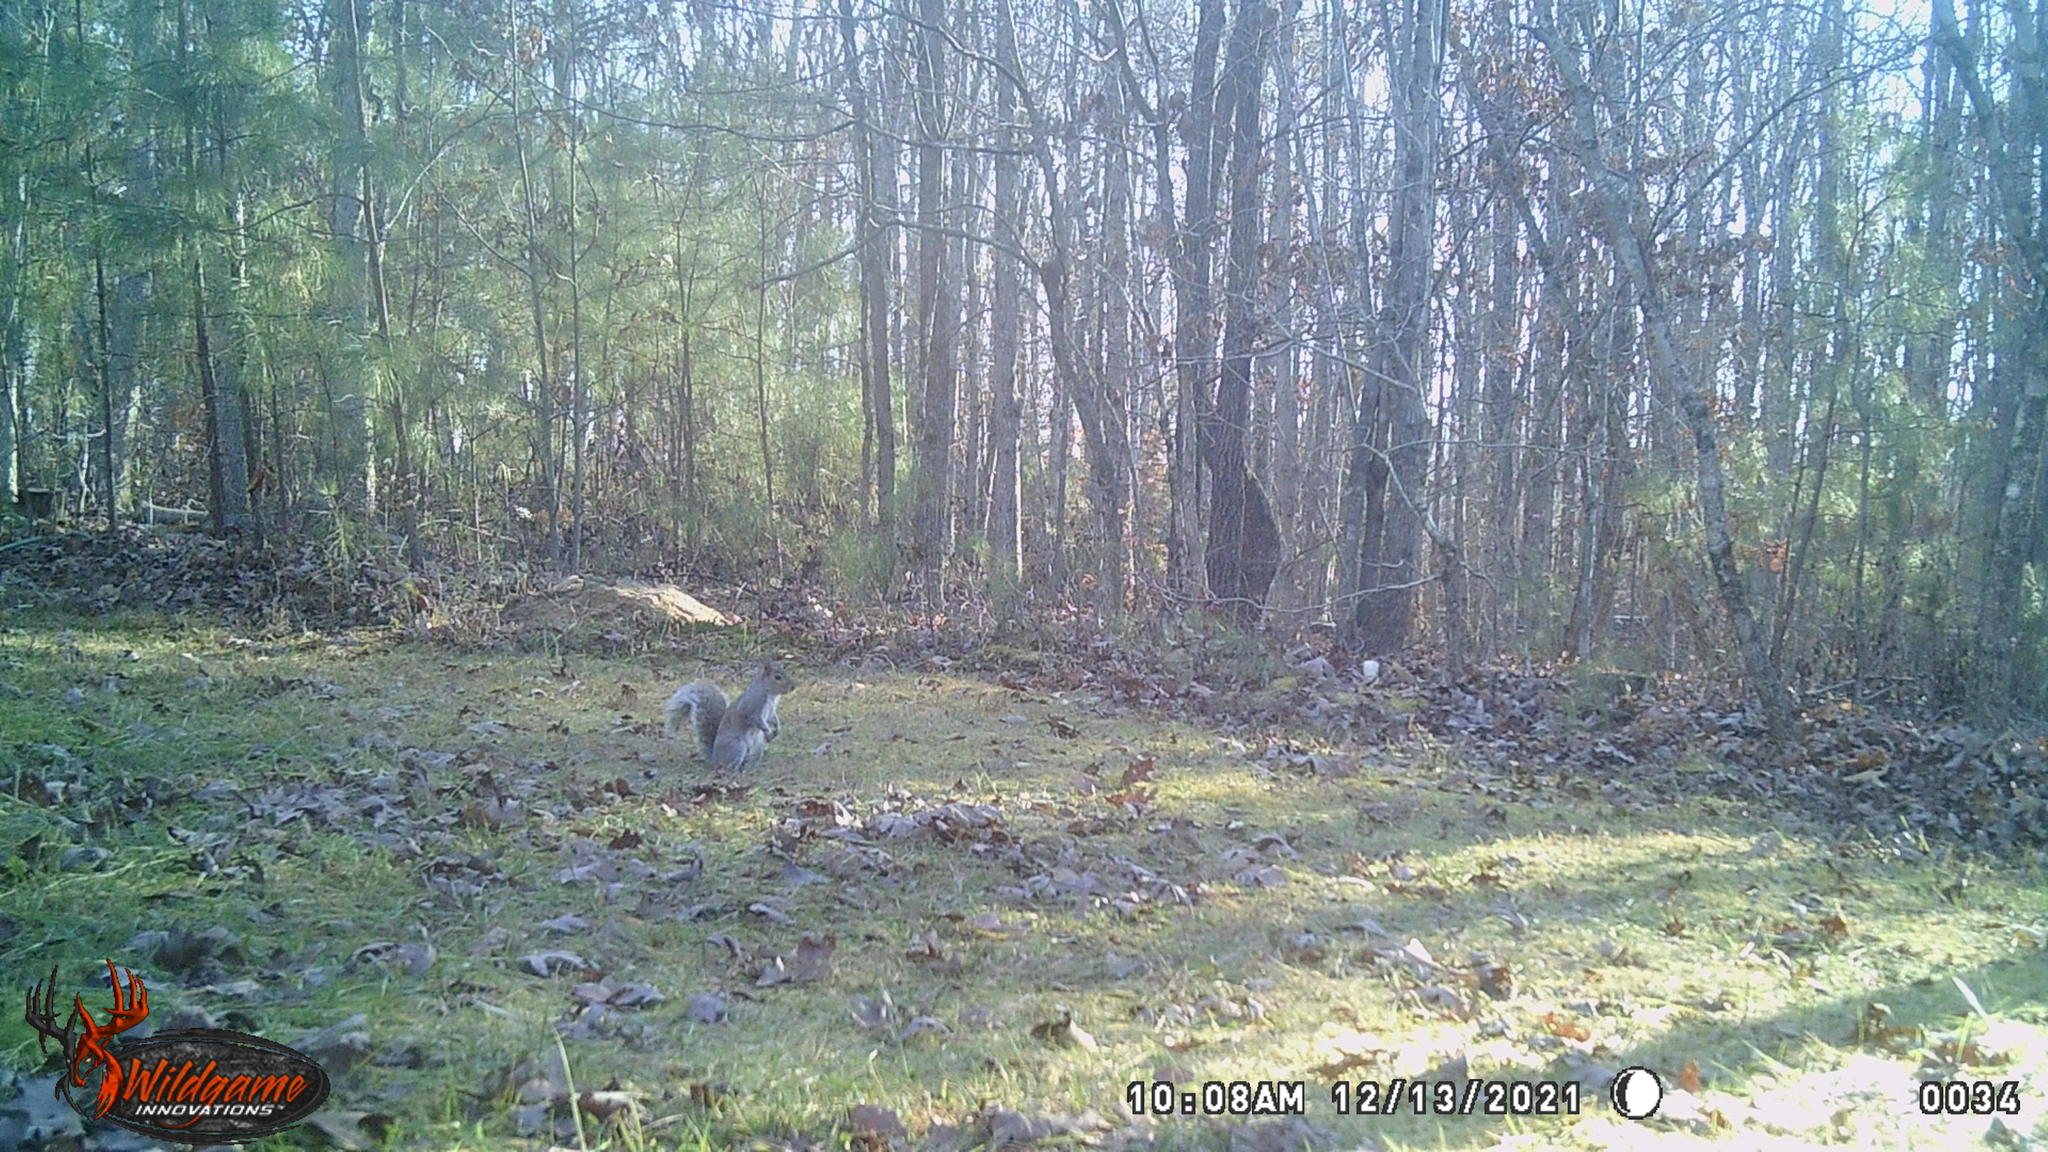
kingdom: Animalia
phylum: Chordata
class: Mammalia
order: Rodentia
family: Sciuridae
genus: Sciurus
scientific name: Sciurus carolinensis
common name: Eastern gray squirrel
